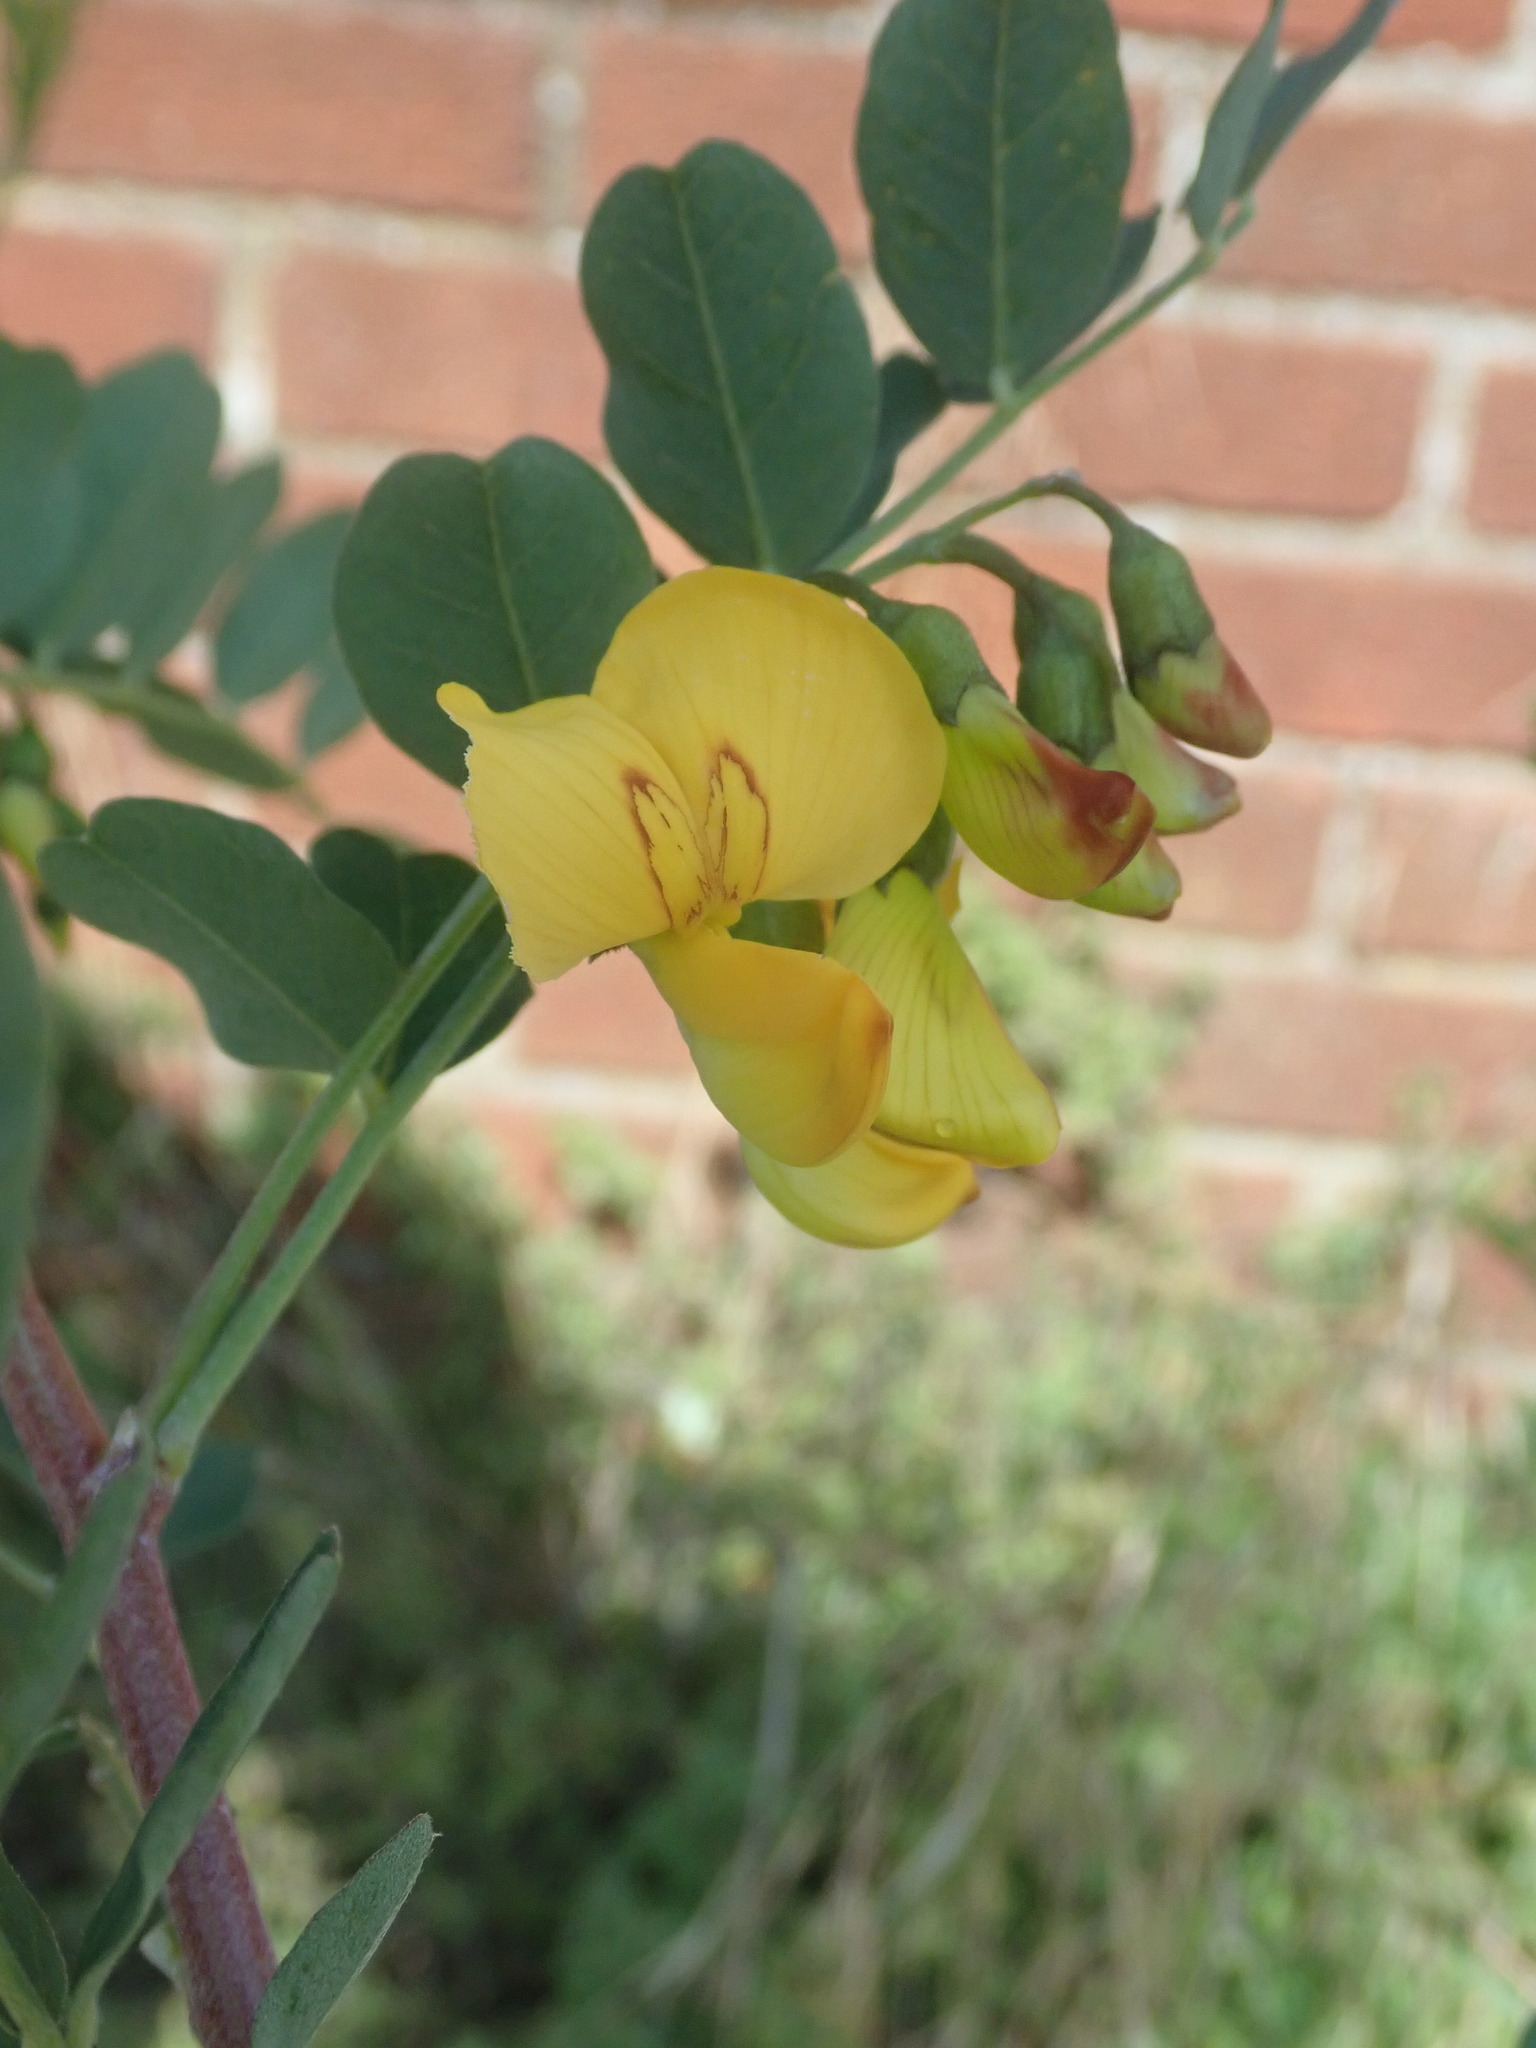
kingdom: Plantae
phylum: Tracheophyta
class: Magnoliopsida
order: Fabales
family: Fabaceae
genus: Colutea
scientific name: Colutea arborescens
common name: Bladder-senna
